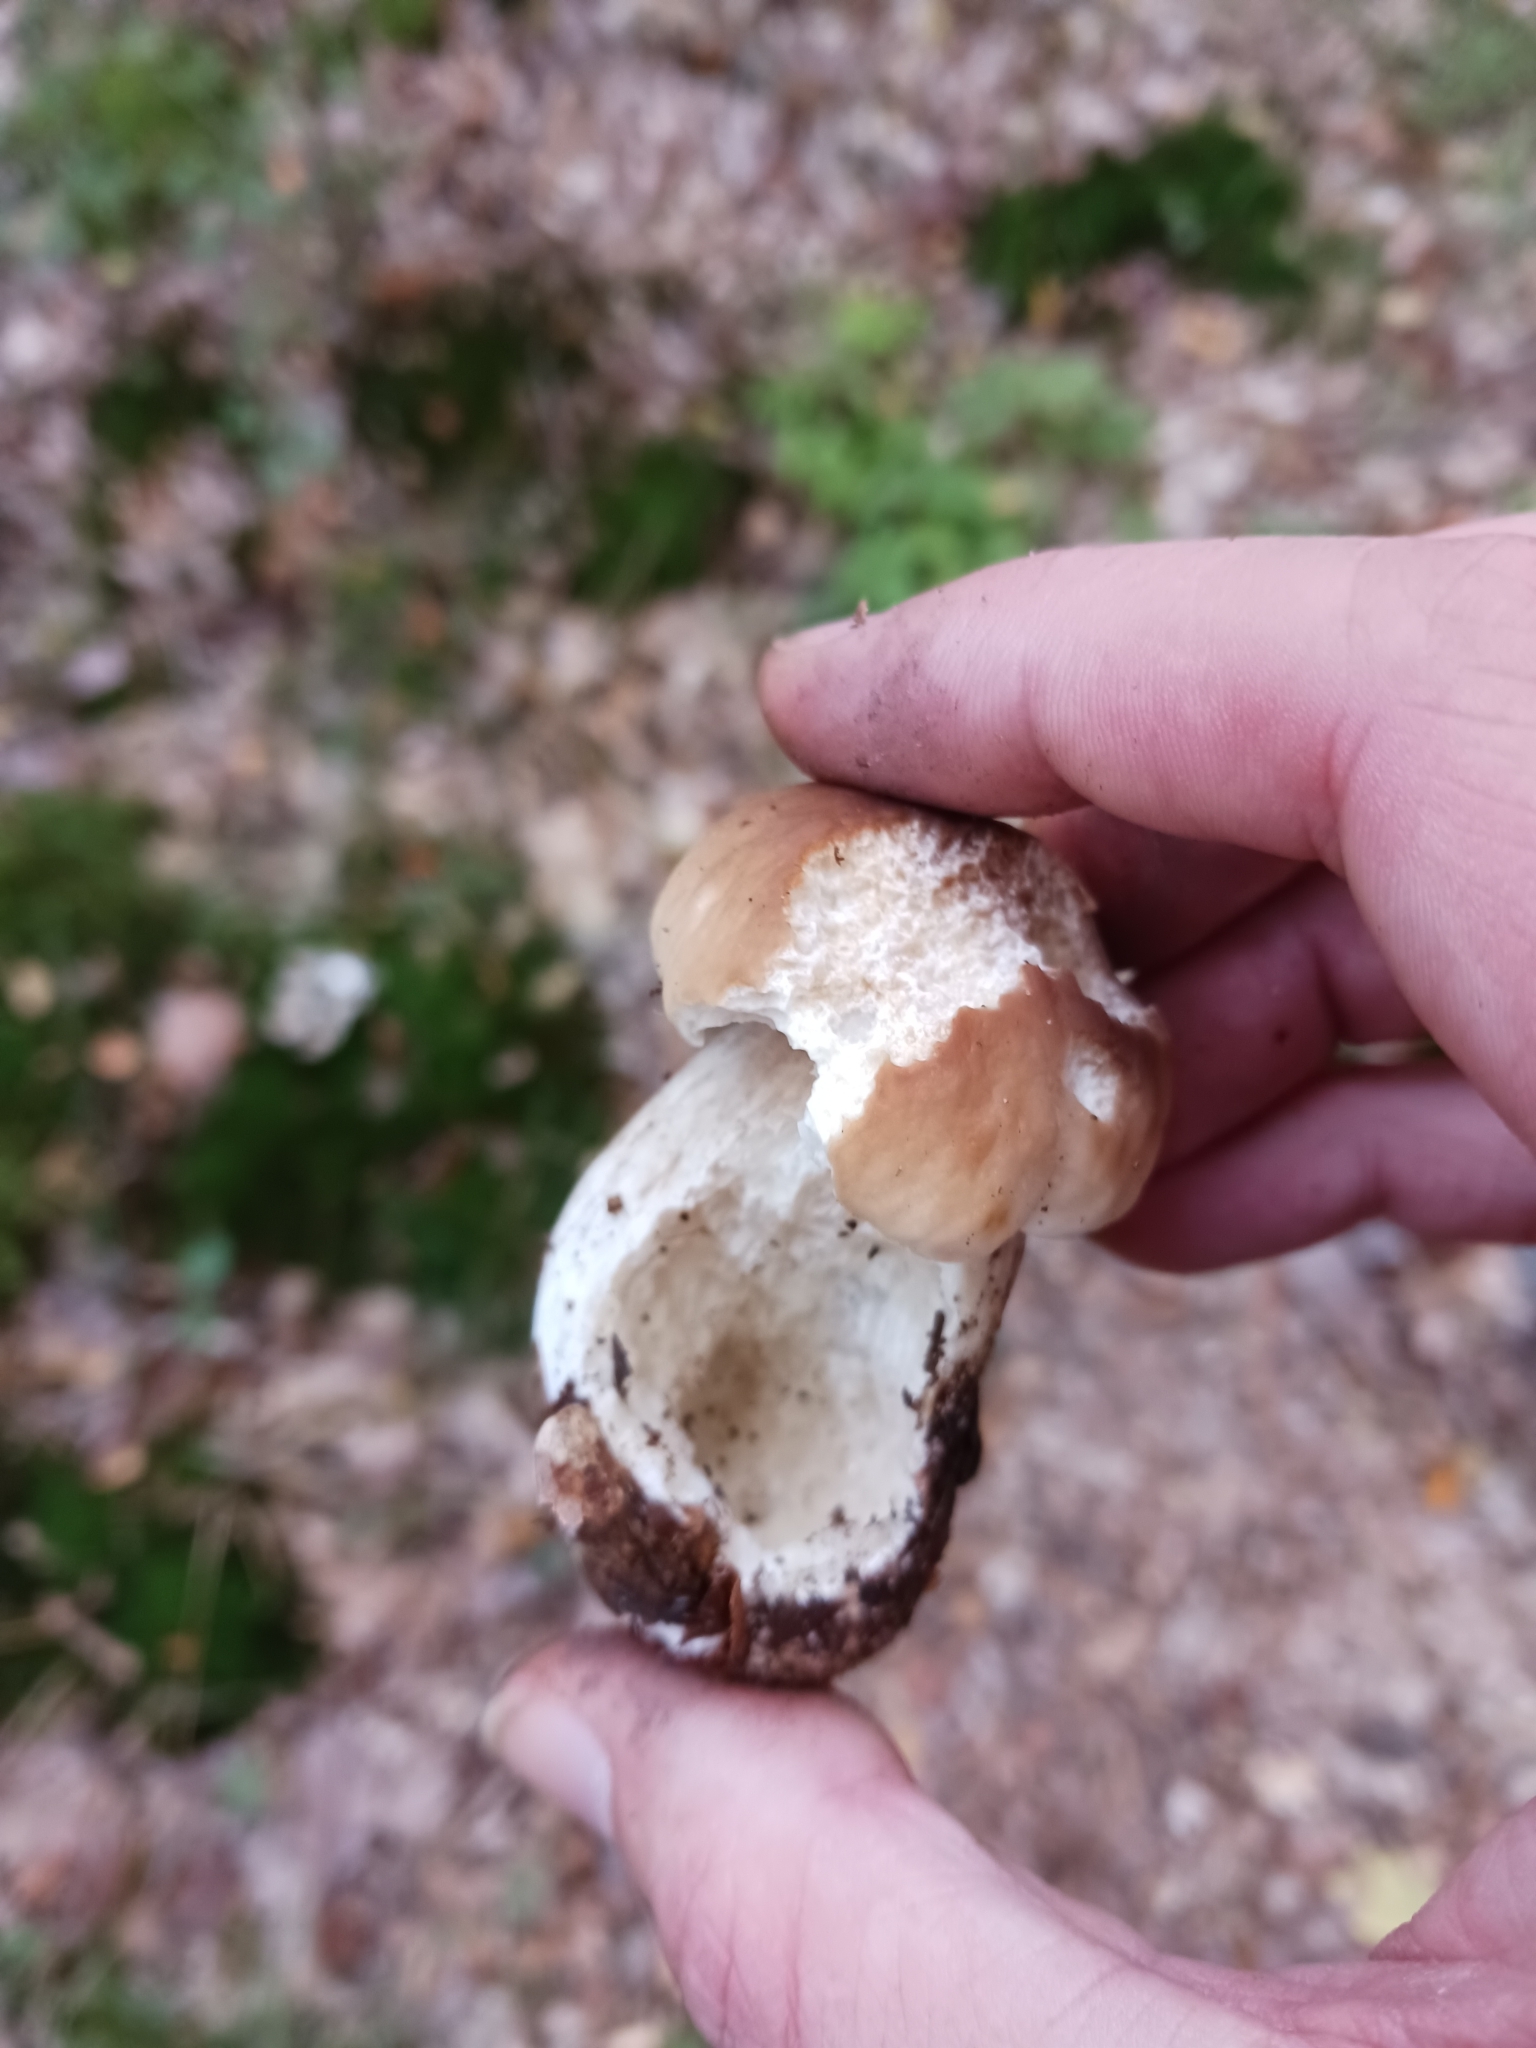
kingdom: Fungi
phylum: Basidiomycota
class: Agaricomycetes
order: Boletales
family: Boletaceae
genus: Boletus
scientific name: Boletus edulis
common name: Cep
